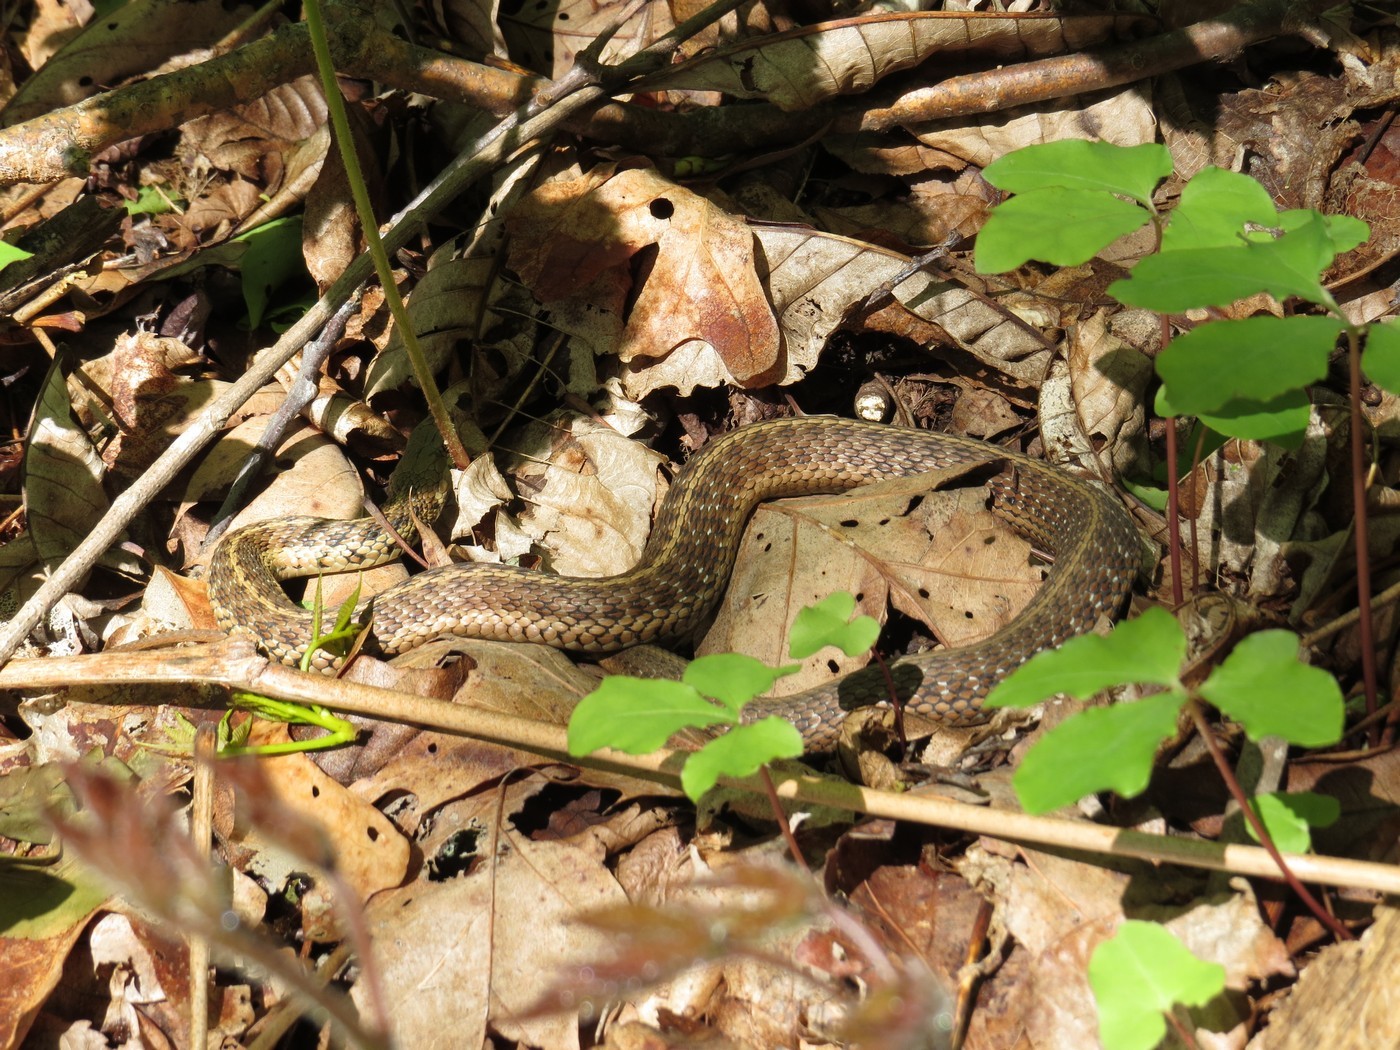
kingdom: Animalia
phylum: Chordata
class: Squamata
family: Colubridae
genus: Thamnophis
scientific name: Thamnophis sirtalis
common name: Common garter snake
